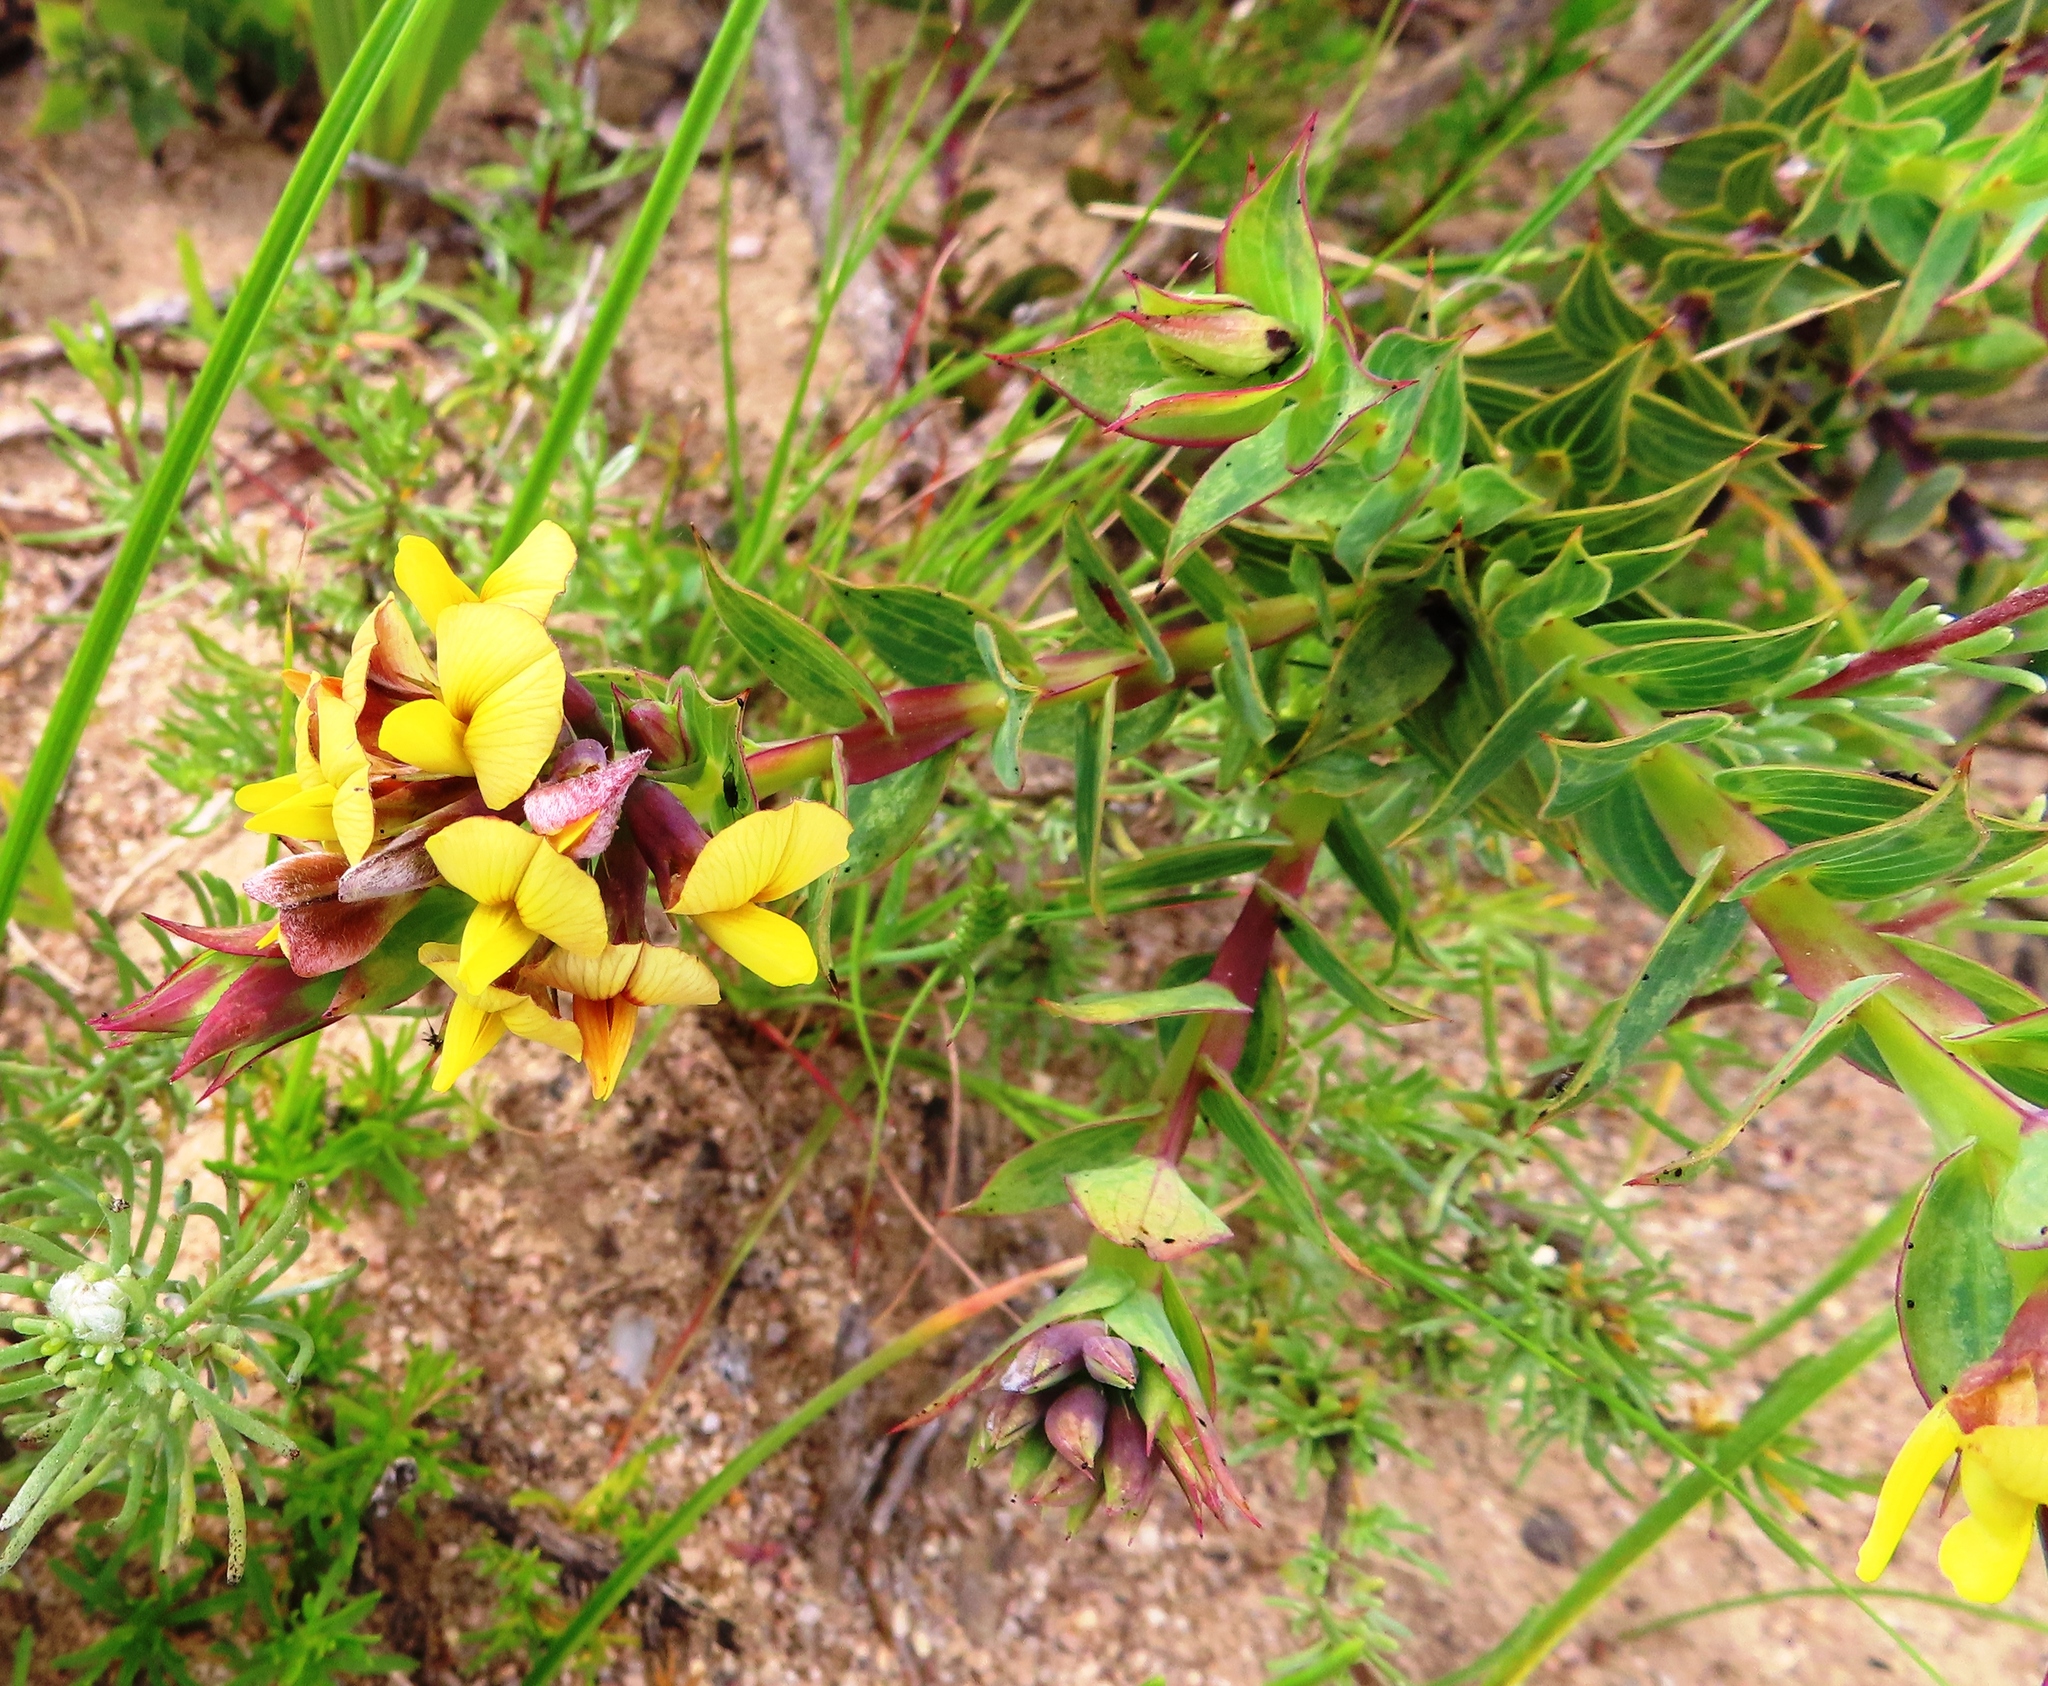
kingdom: Plantae
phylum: Tracheophyta
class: Magnoliopsida
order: Fabales
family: Fabaceae
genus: Aspalathus
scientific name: Aspalathus crenata
